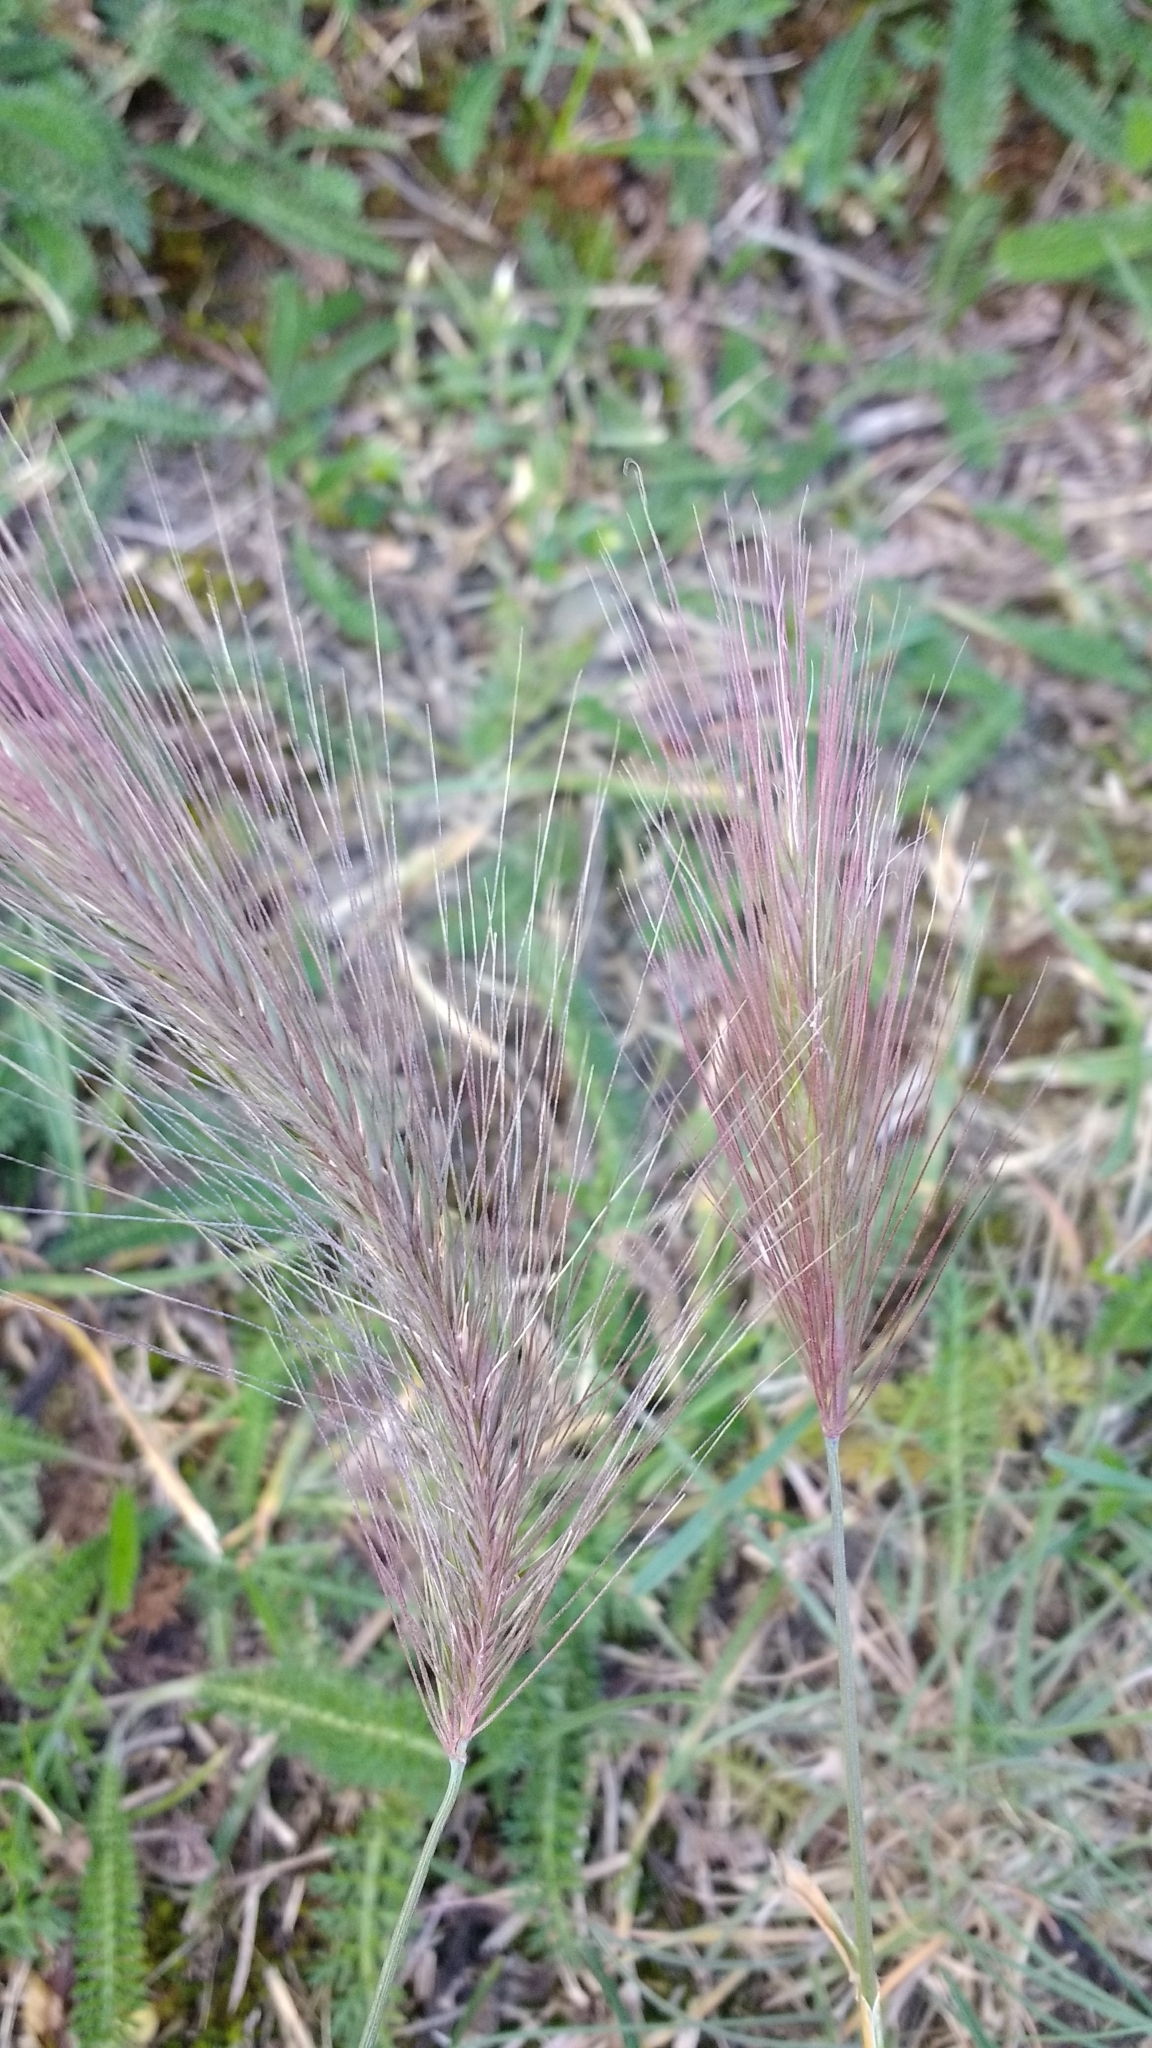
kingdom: Plantae
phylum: Tracheophyta
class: Liliopsida
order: Poales
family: Poaceae
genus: Hordeum
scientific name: Hordeum comosum
